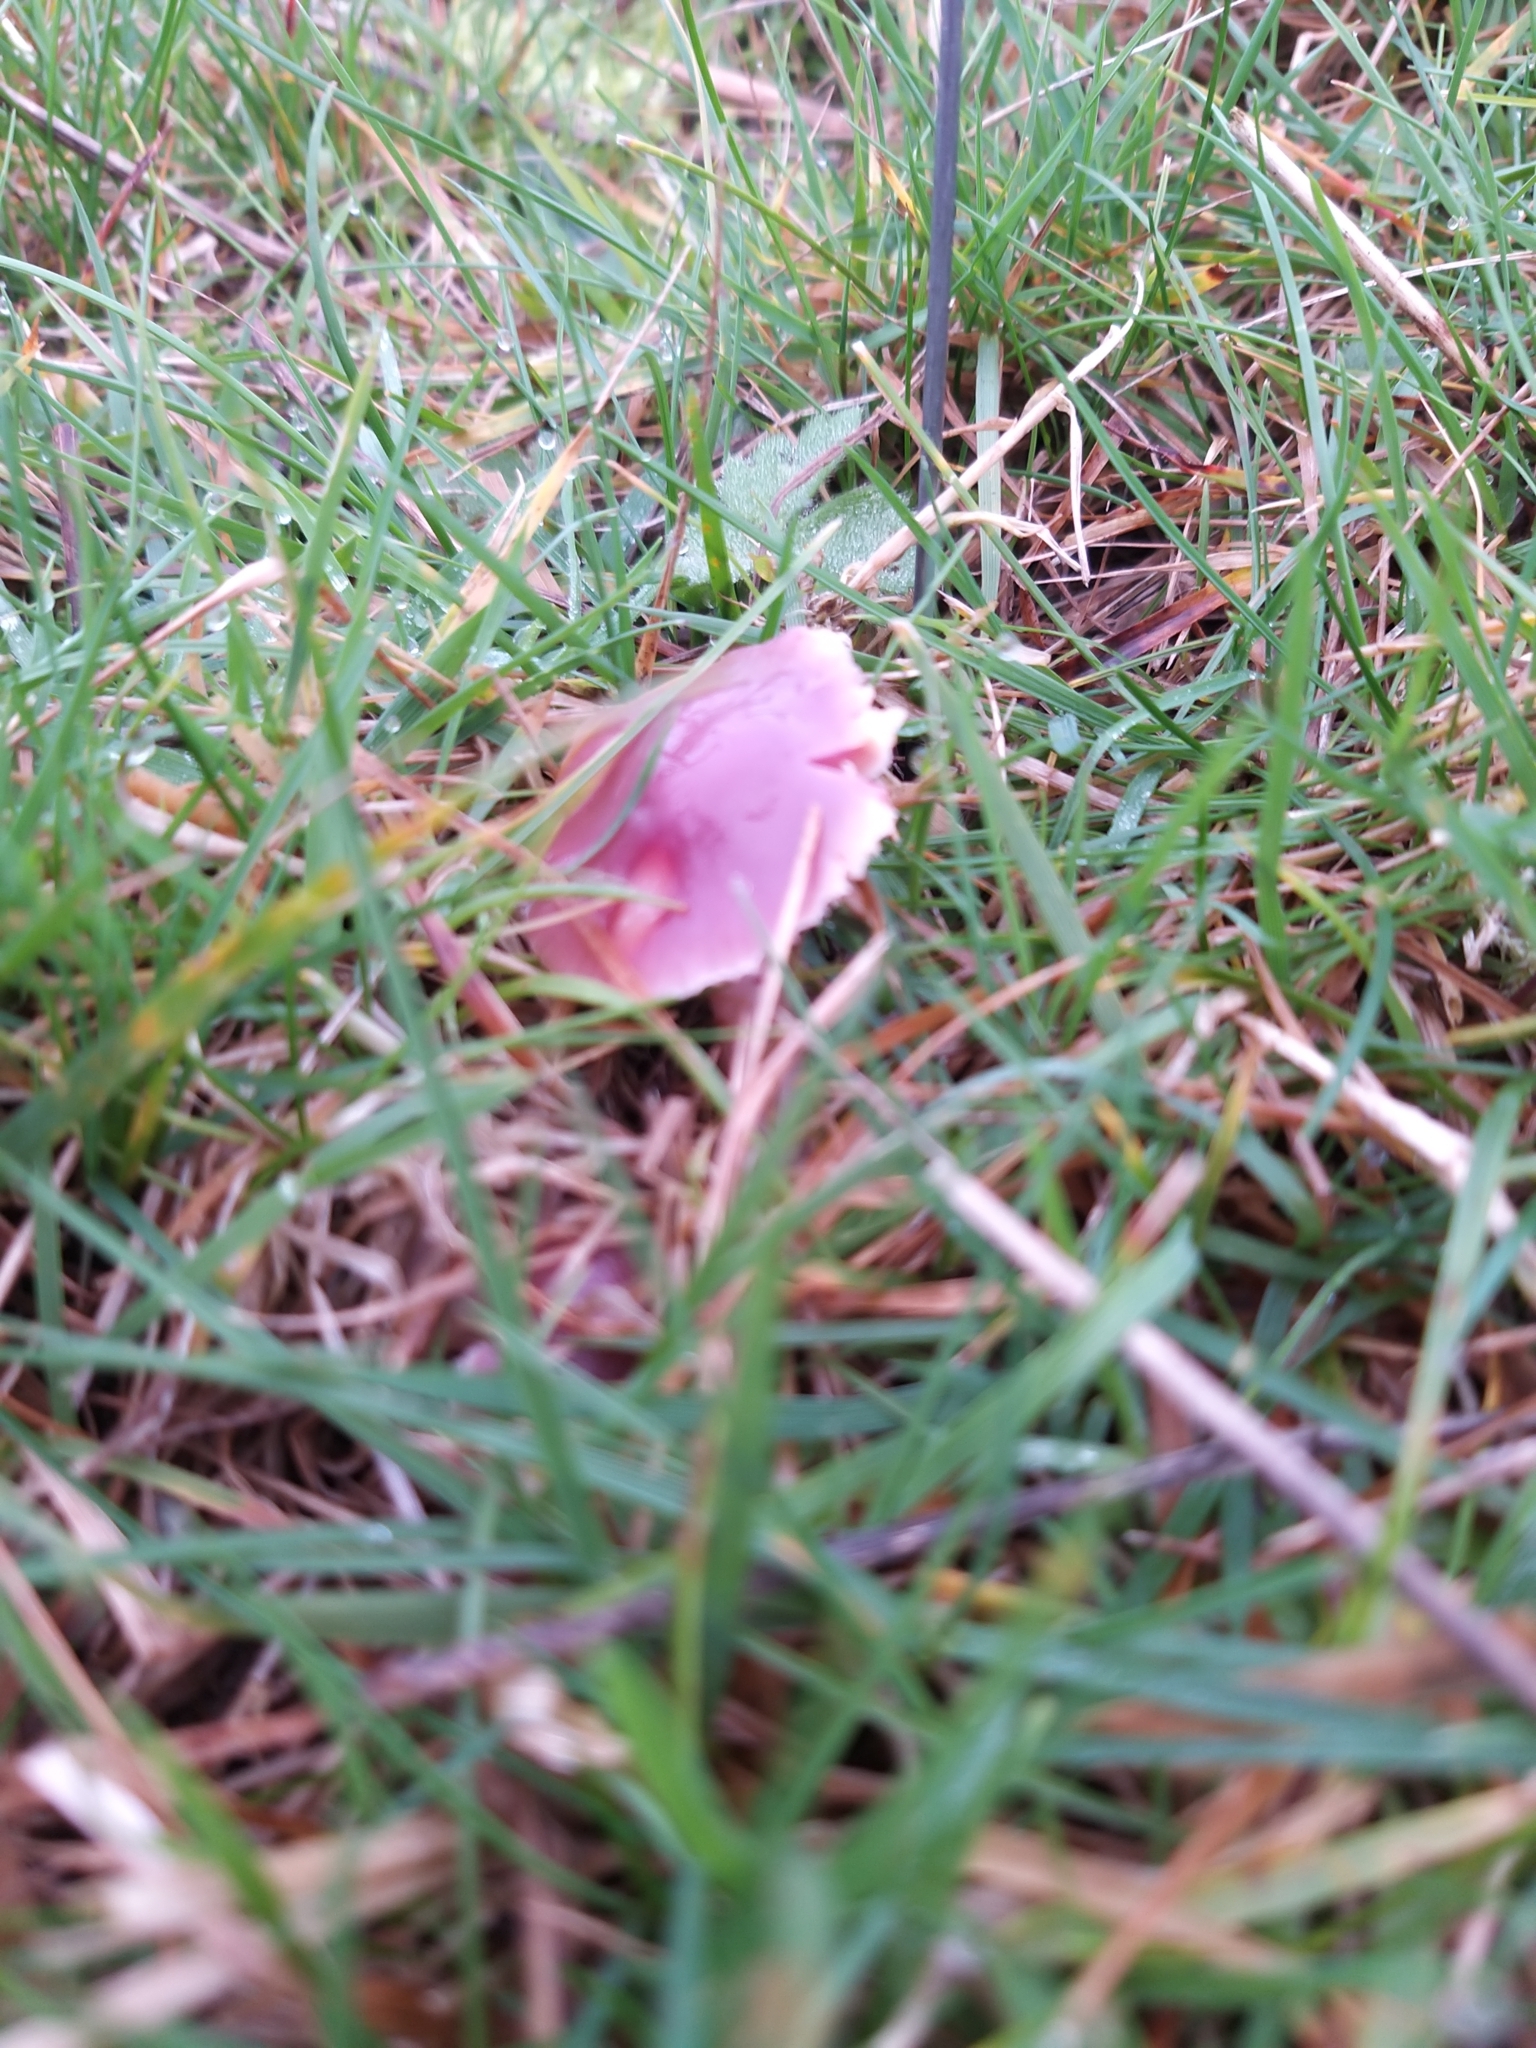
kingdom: Fungi
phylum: Basidiomycota
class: Agaricomycetes
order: Agaricales
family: Hygrophoraceae
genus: Gliophorus
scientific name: Gliophorus reginae
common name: Jubilee waxcap
